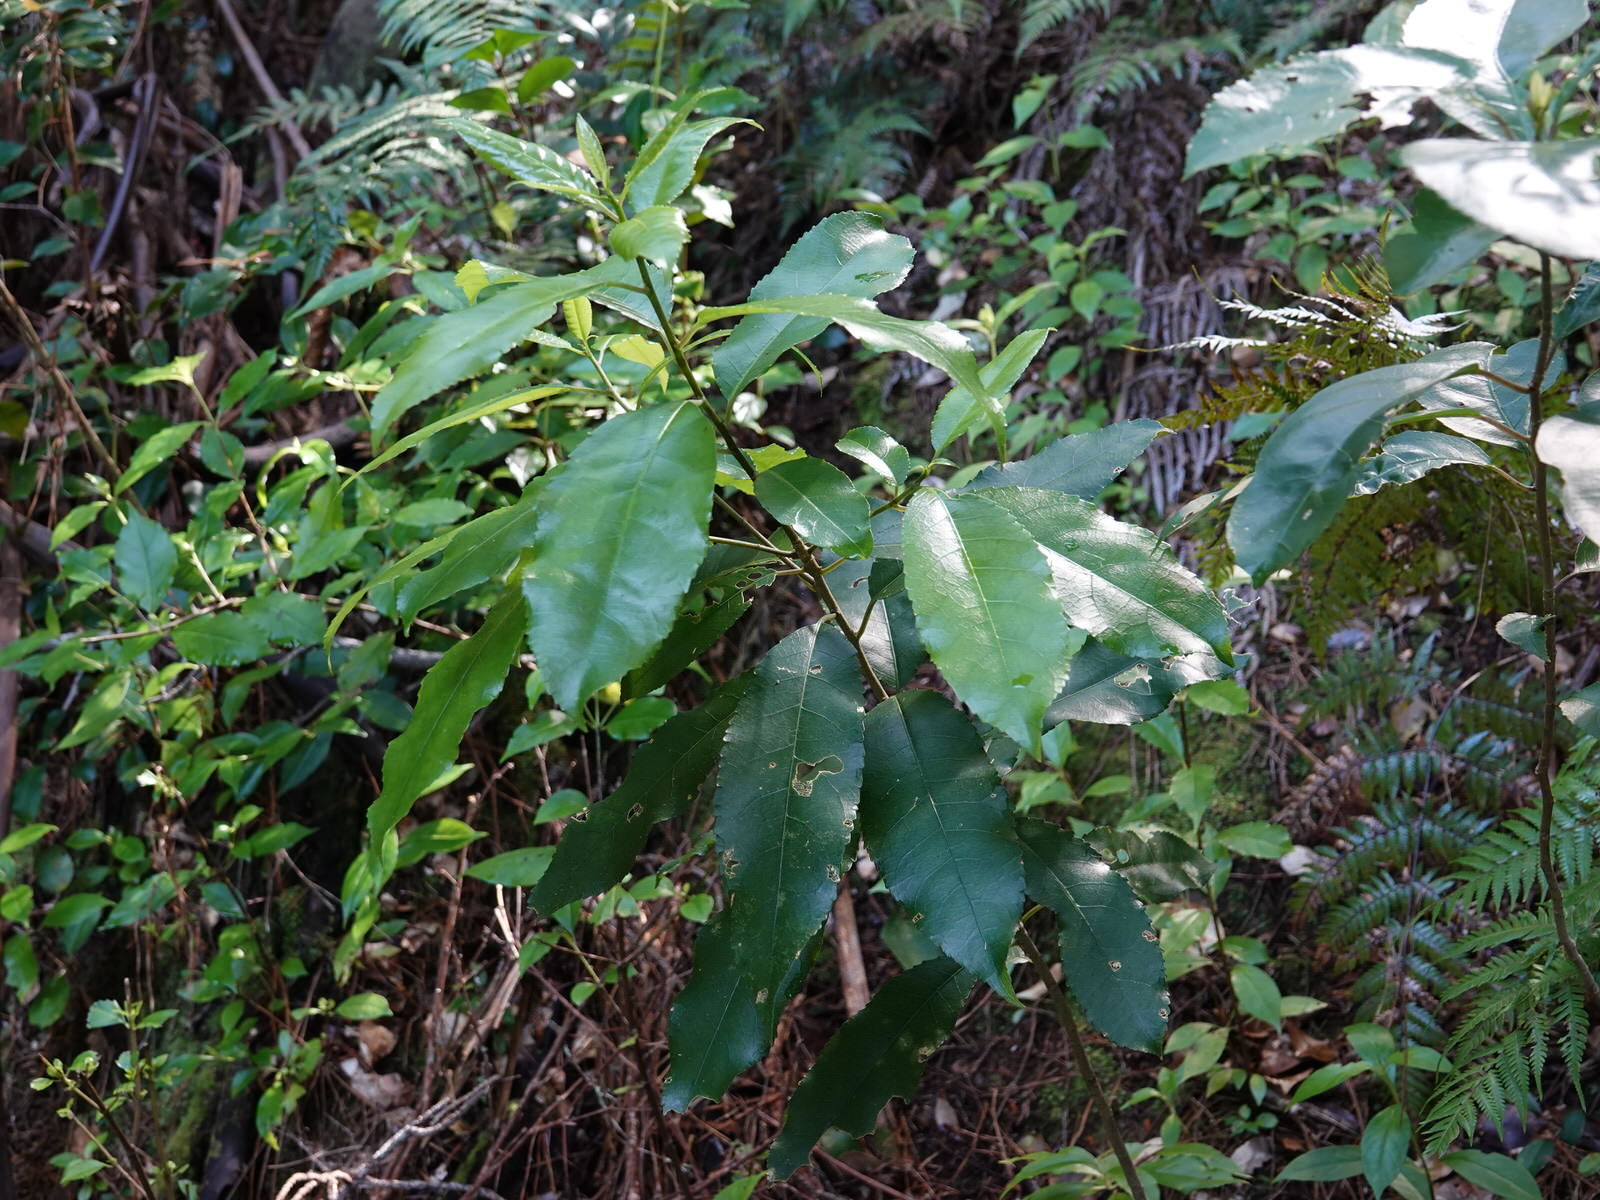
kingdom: Plantae
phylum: Tracheophyta
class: Magnoliopsida
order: Malpighiales
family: Violaceae
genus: Melicytus
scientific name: Melicytus ramiflorus
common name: Mahoe
